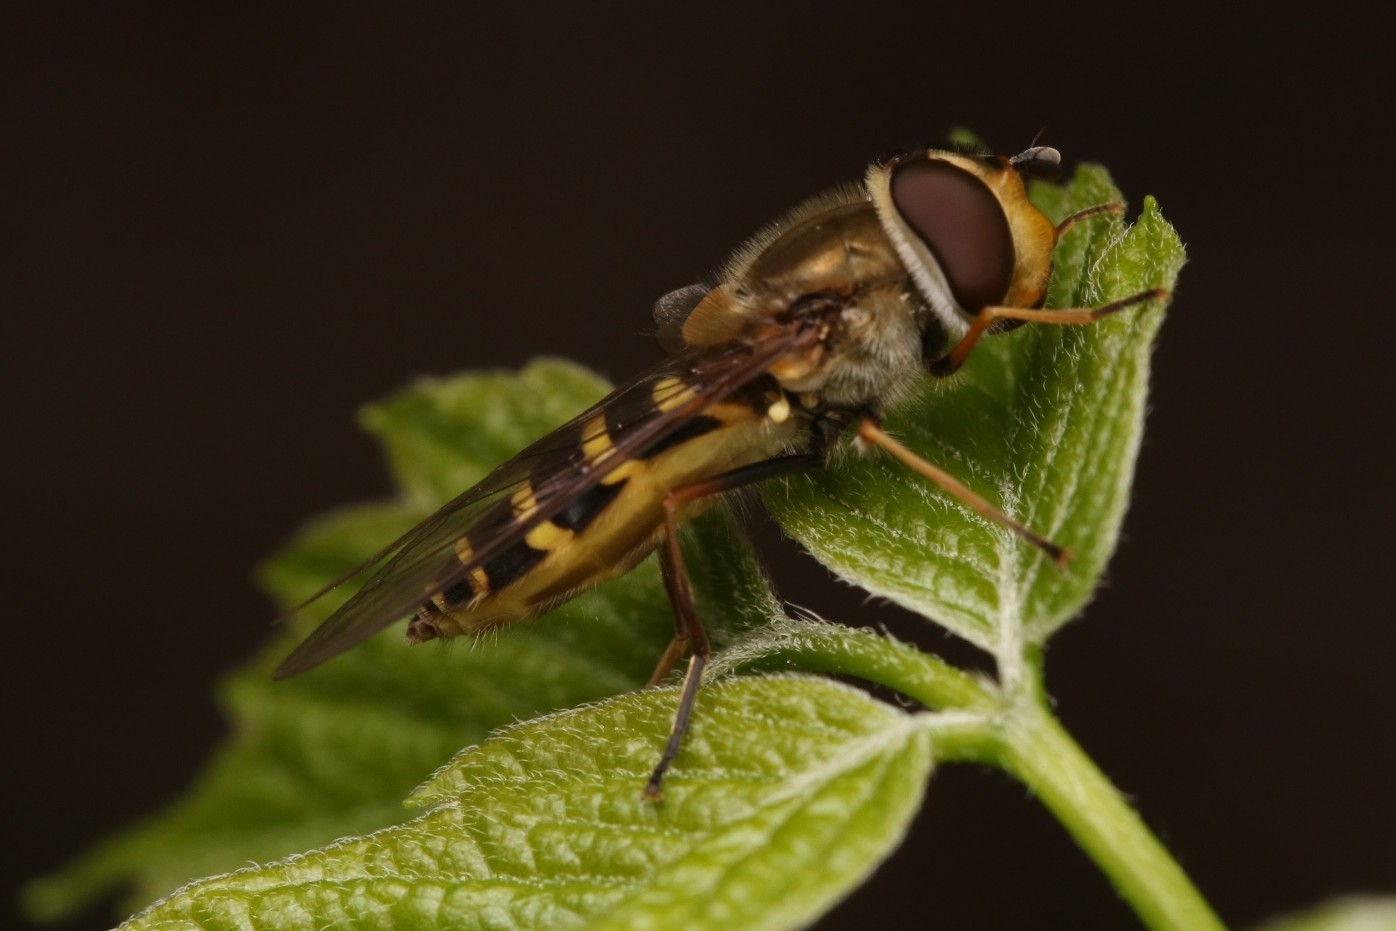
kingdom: Animalia
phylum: Arthropoda
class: Insecta
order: Diptera
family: Syrphidae
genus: Syrphus
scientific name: Syrphus
